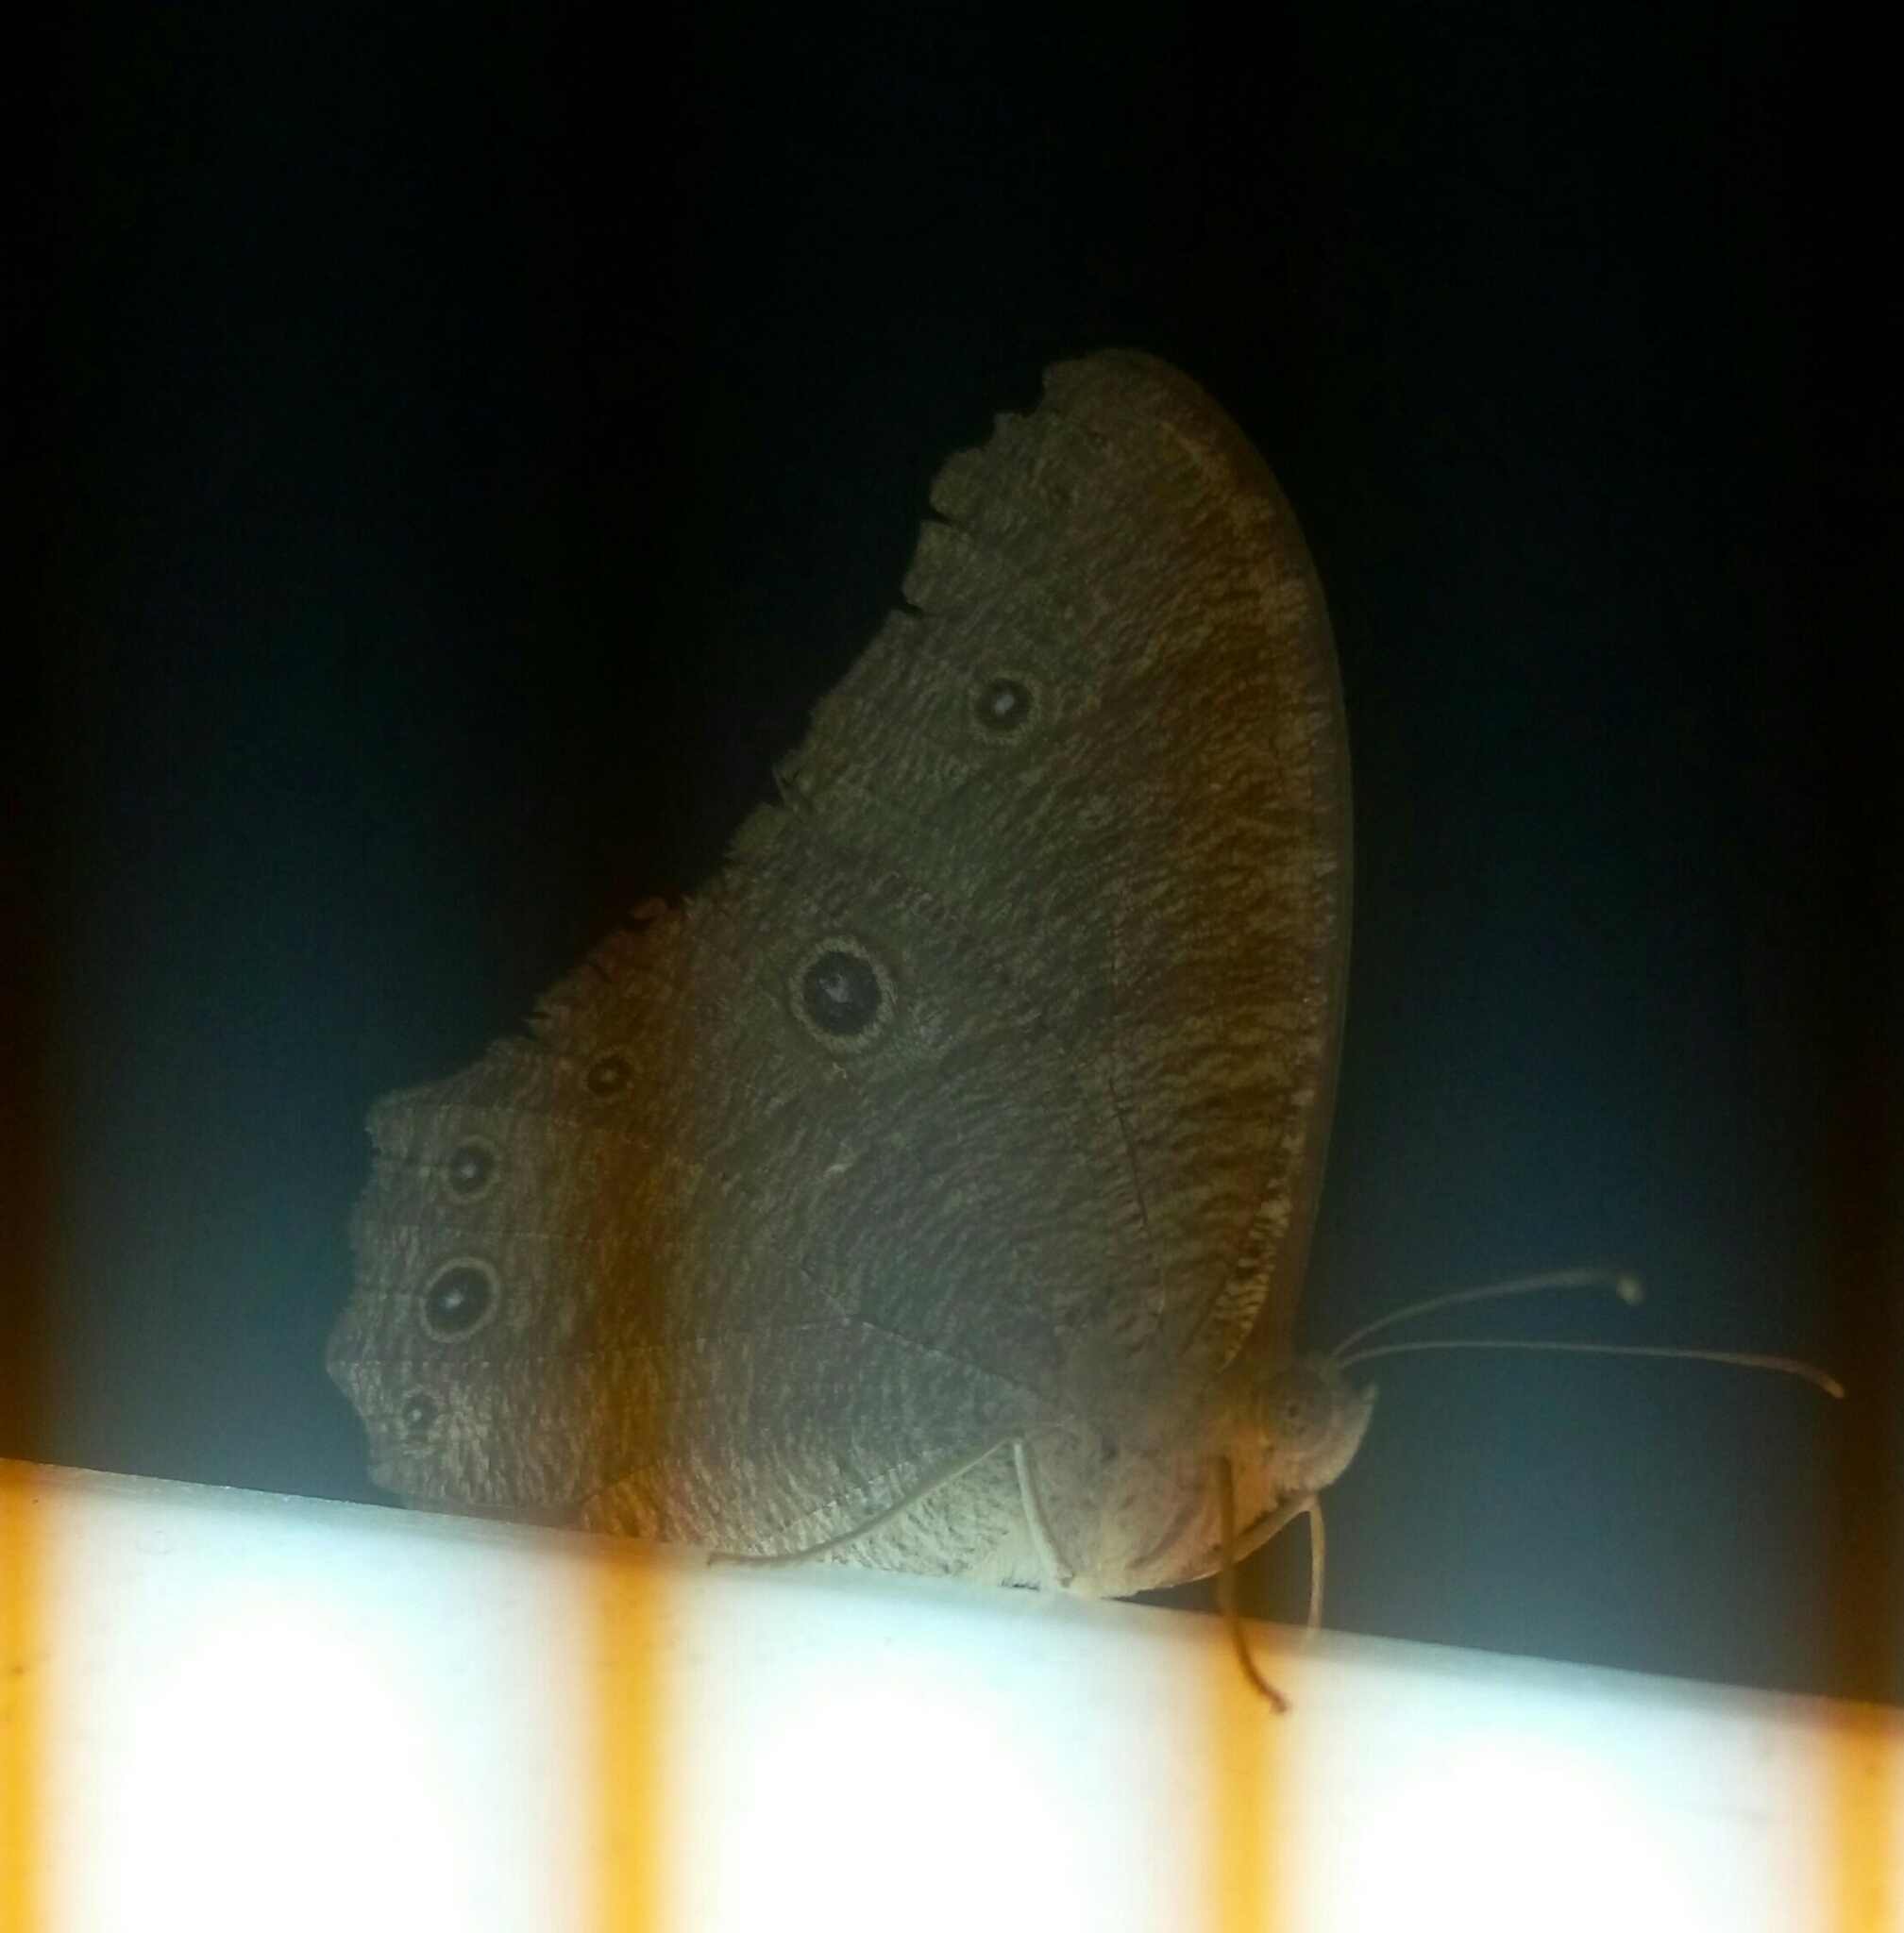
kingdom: Animalia
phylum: Arthropoda
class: Insecta
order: Lepidoptera
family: Nymphalidae
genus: Melanitis
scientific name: Melanitis leda
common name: Twilight brown
